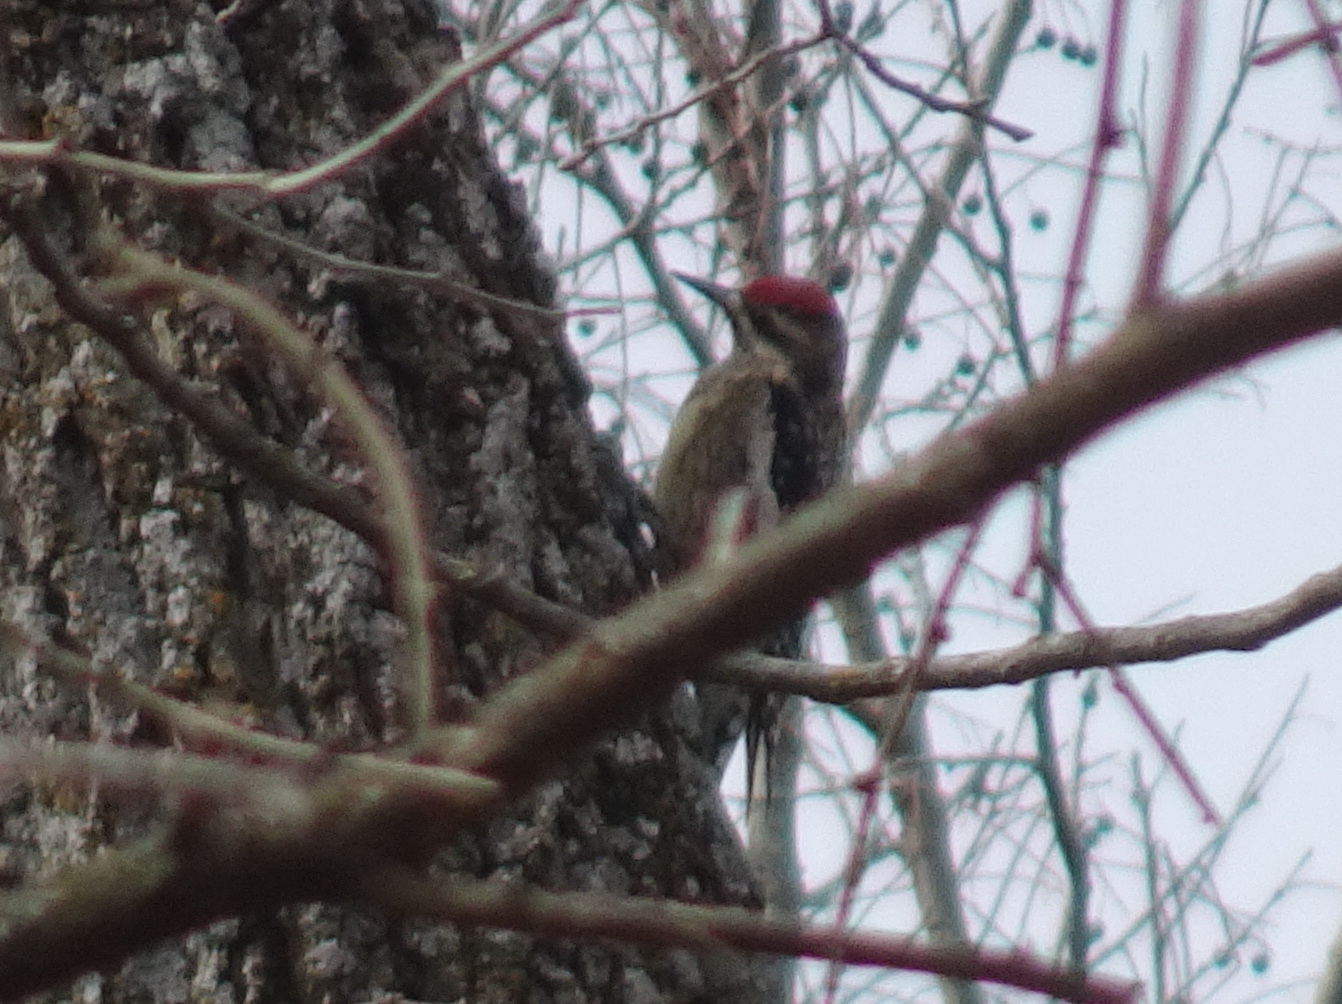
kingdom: Animalia
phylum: Chordata
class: Aves
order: Piciformes
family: Picidae
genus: Sphyrapicus
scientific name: Sphyrapicus varius
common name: Yellow-bellied sapsucker
